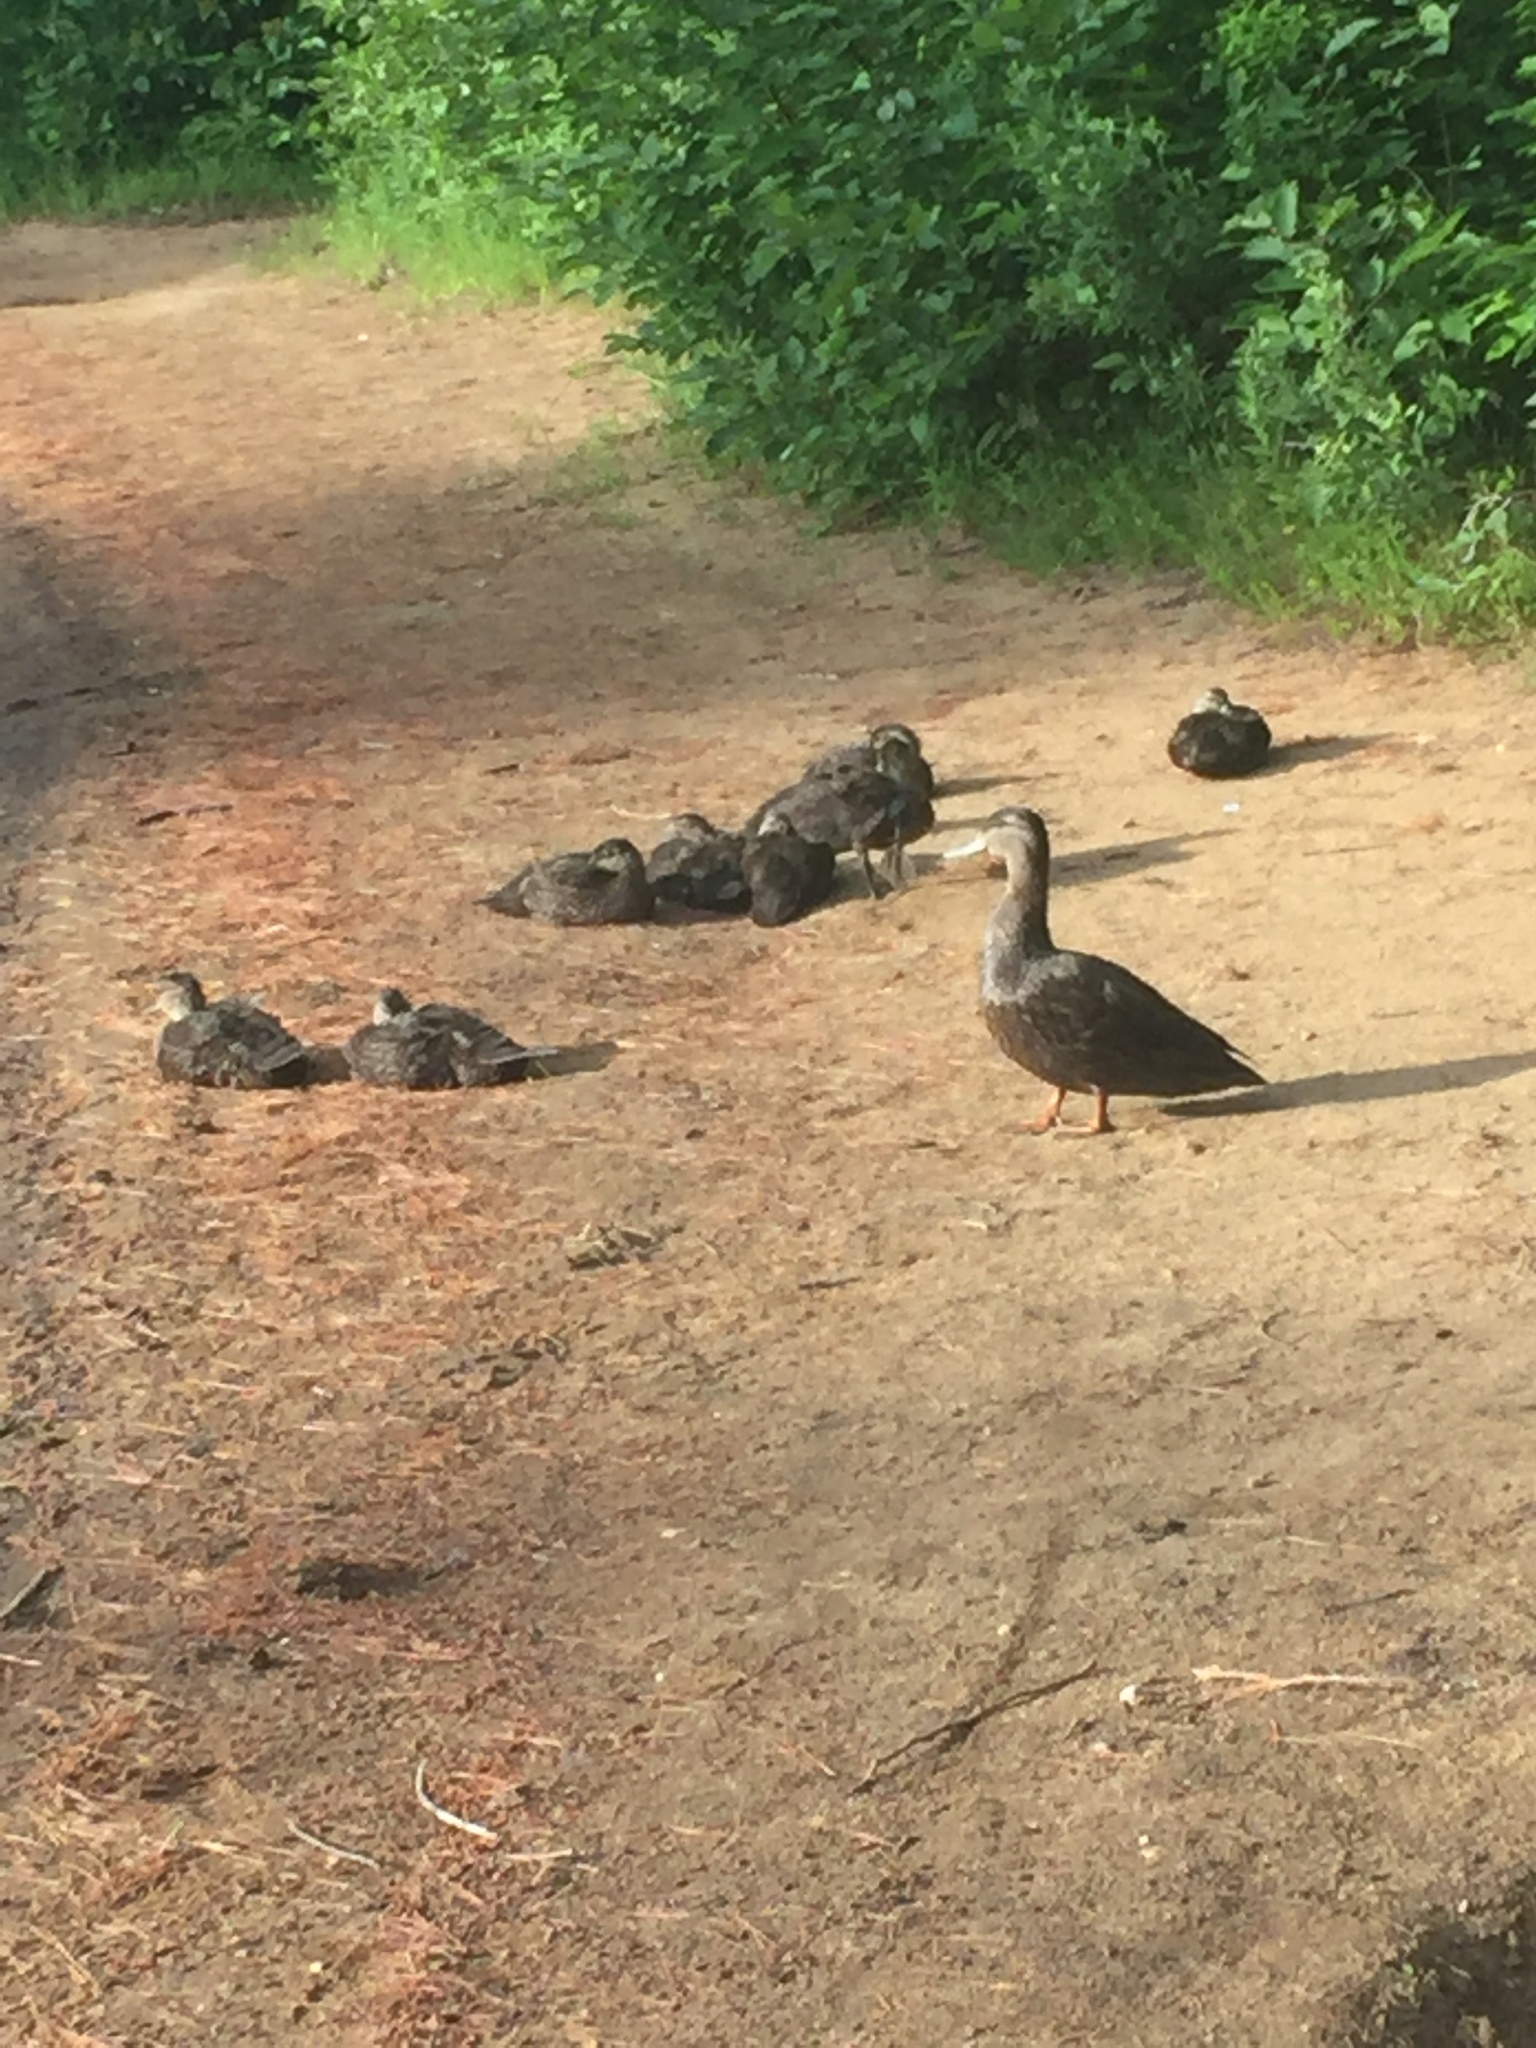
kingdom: Animalia
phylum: Chordata
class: Aves
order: Anseriformes
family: Anatidae
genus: Anas
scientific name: Anas rubripes
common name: American black duck
